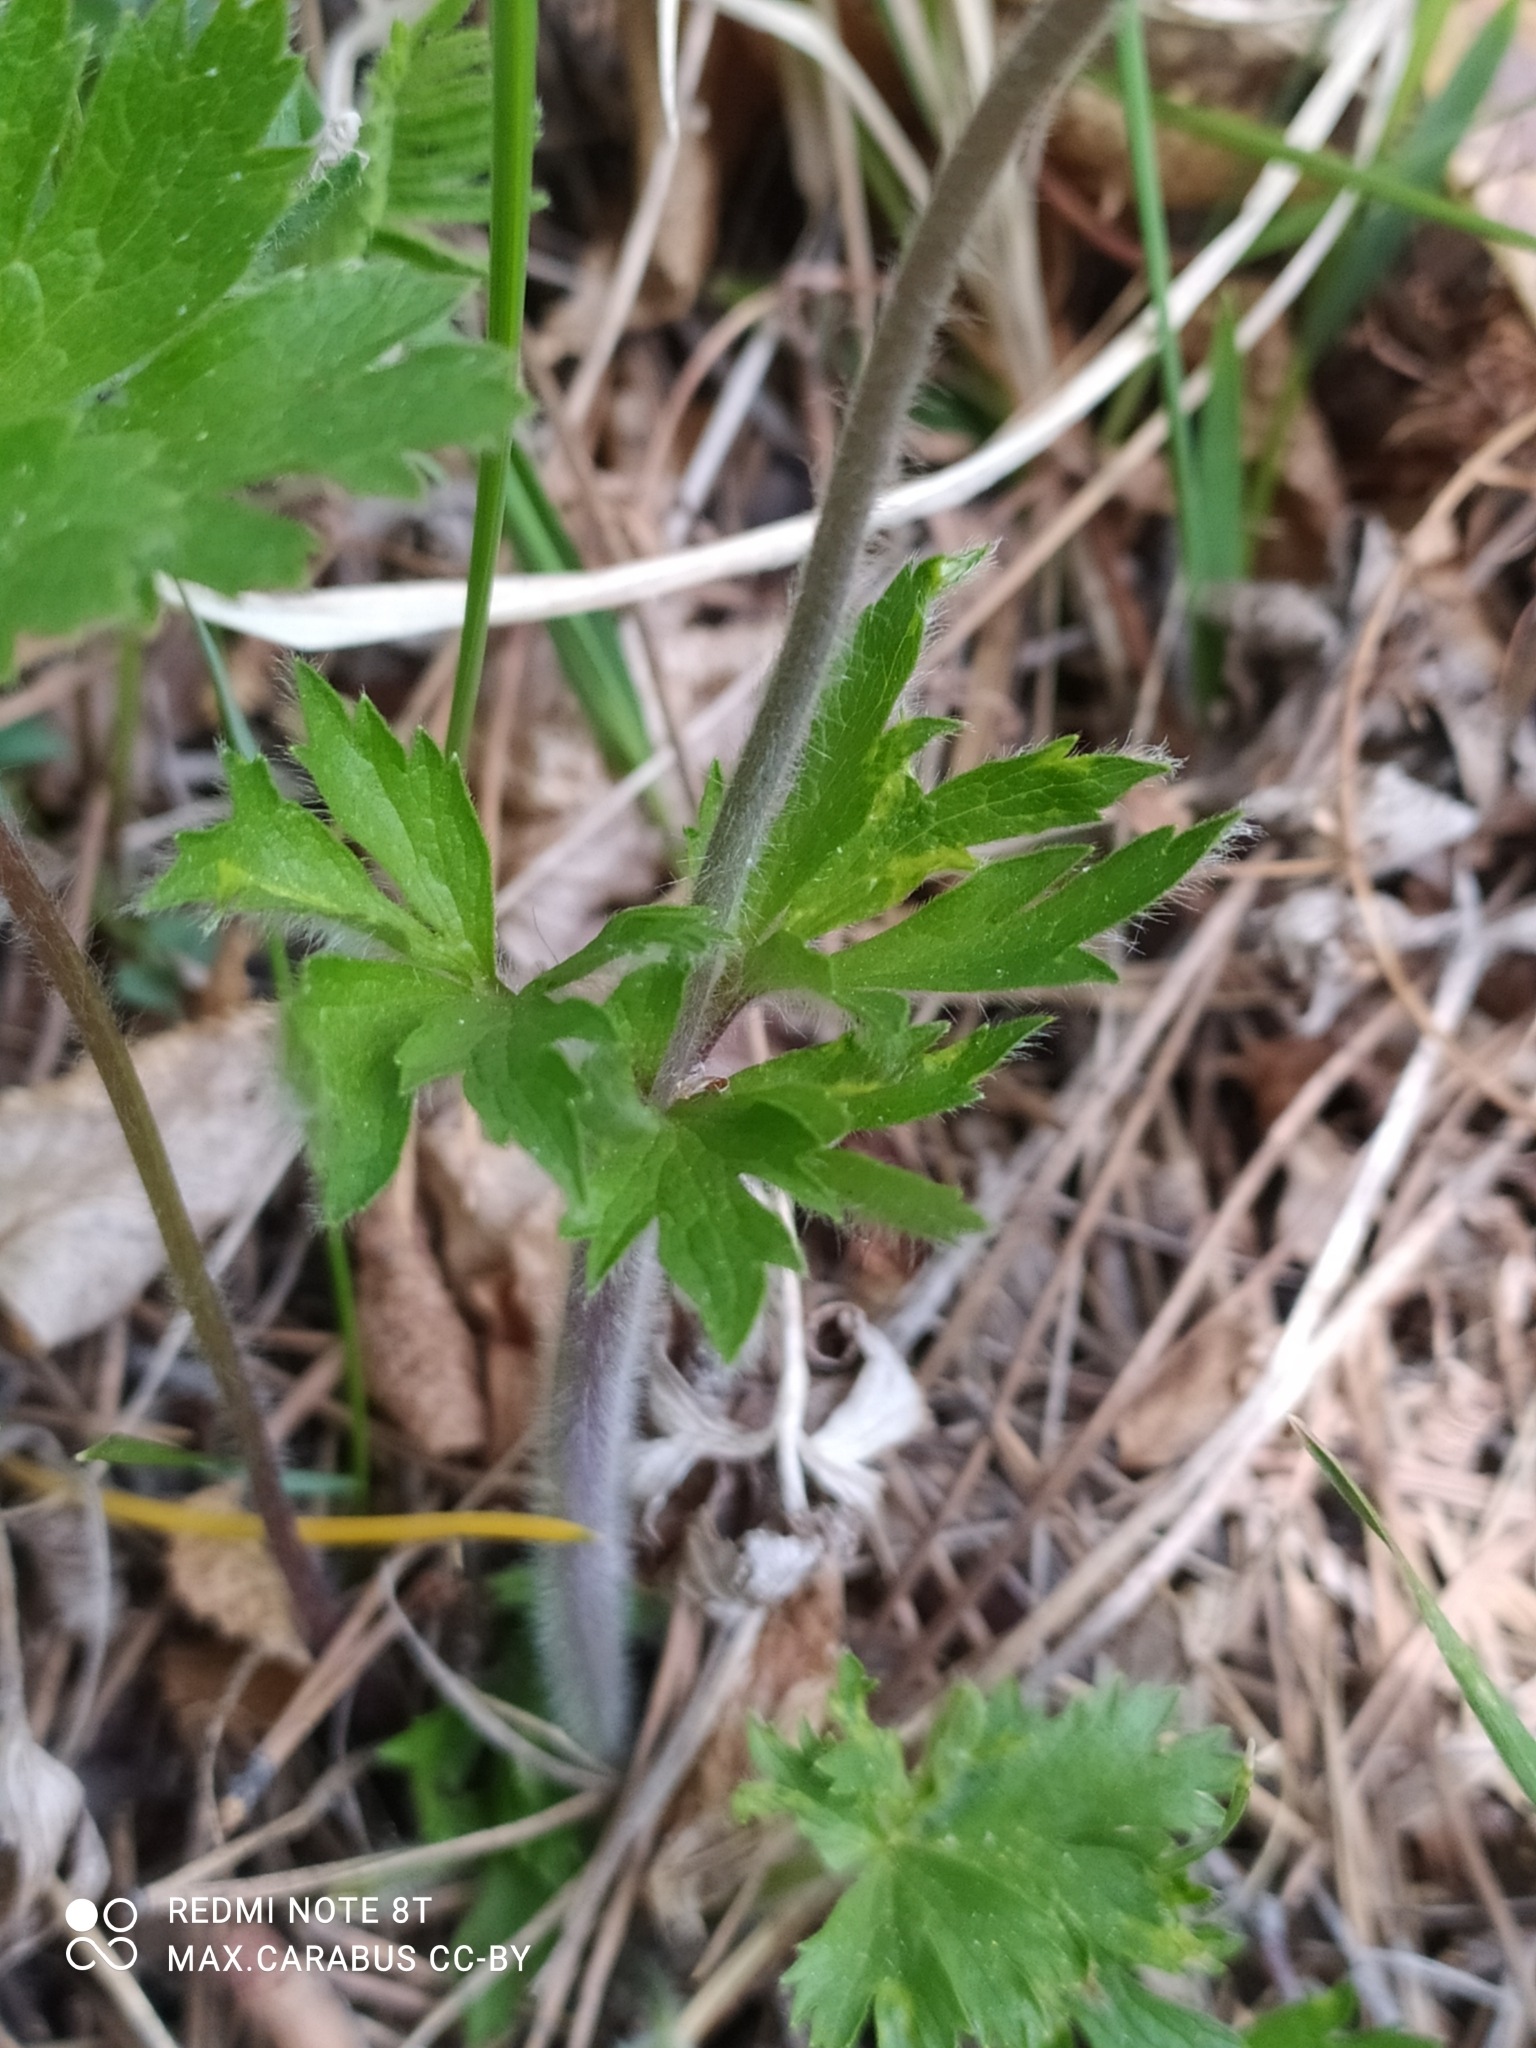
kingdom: Plantae
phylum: Tracheophyta
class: Magnoliopsida
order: Ranunculales
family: Ranunculaceae
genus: Anemone
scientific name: Anemone sylvestris
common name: Snowdrop anemone
